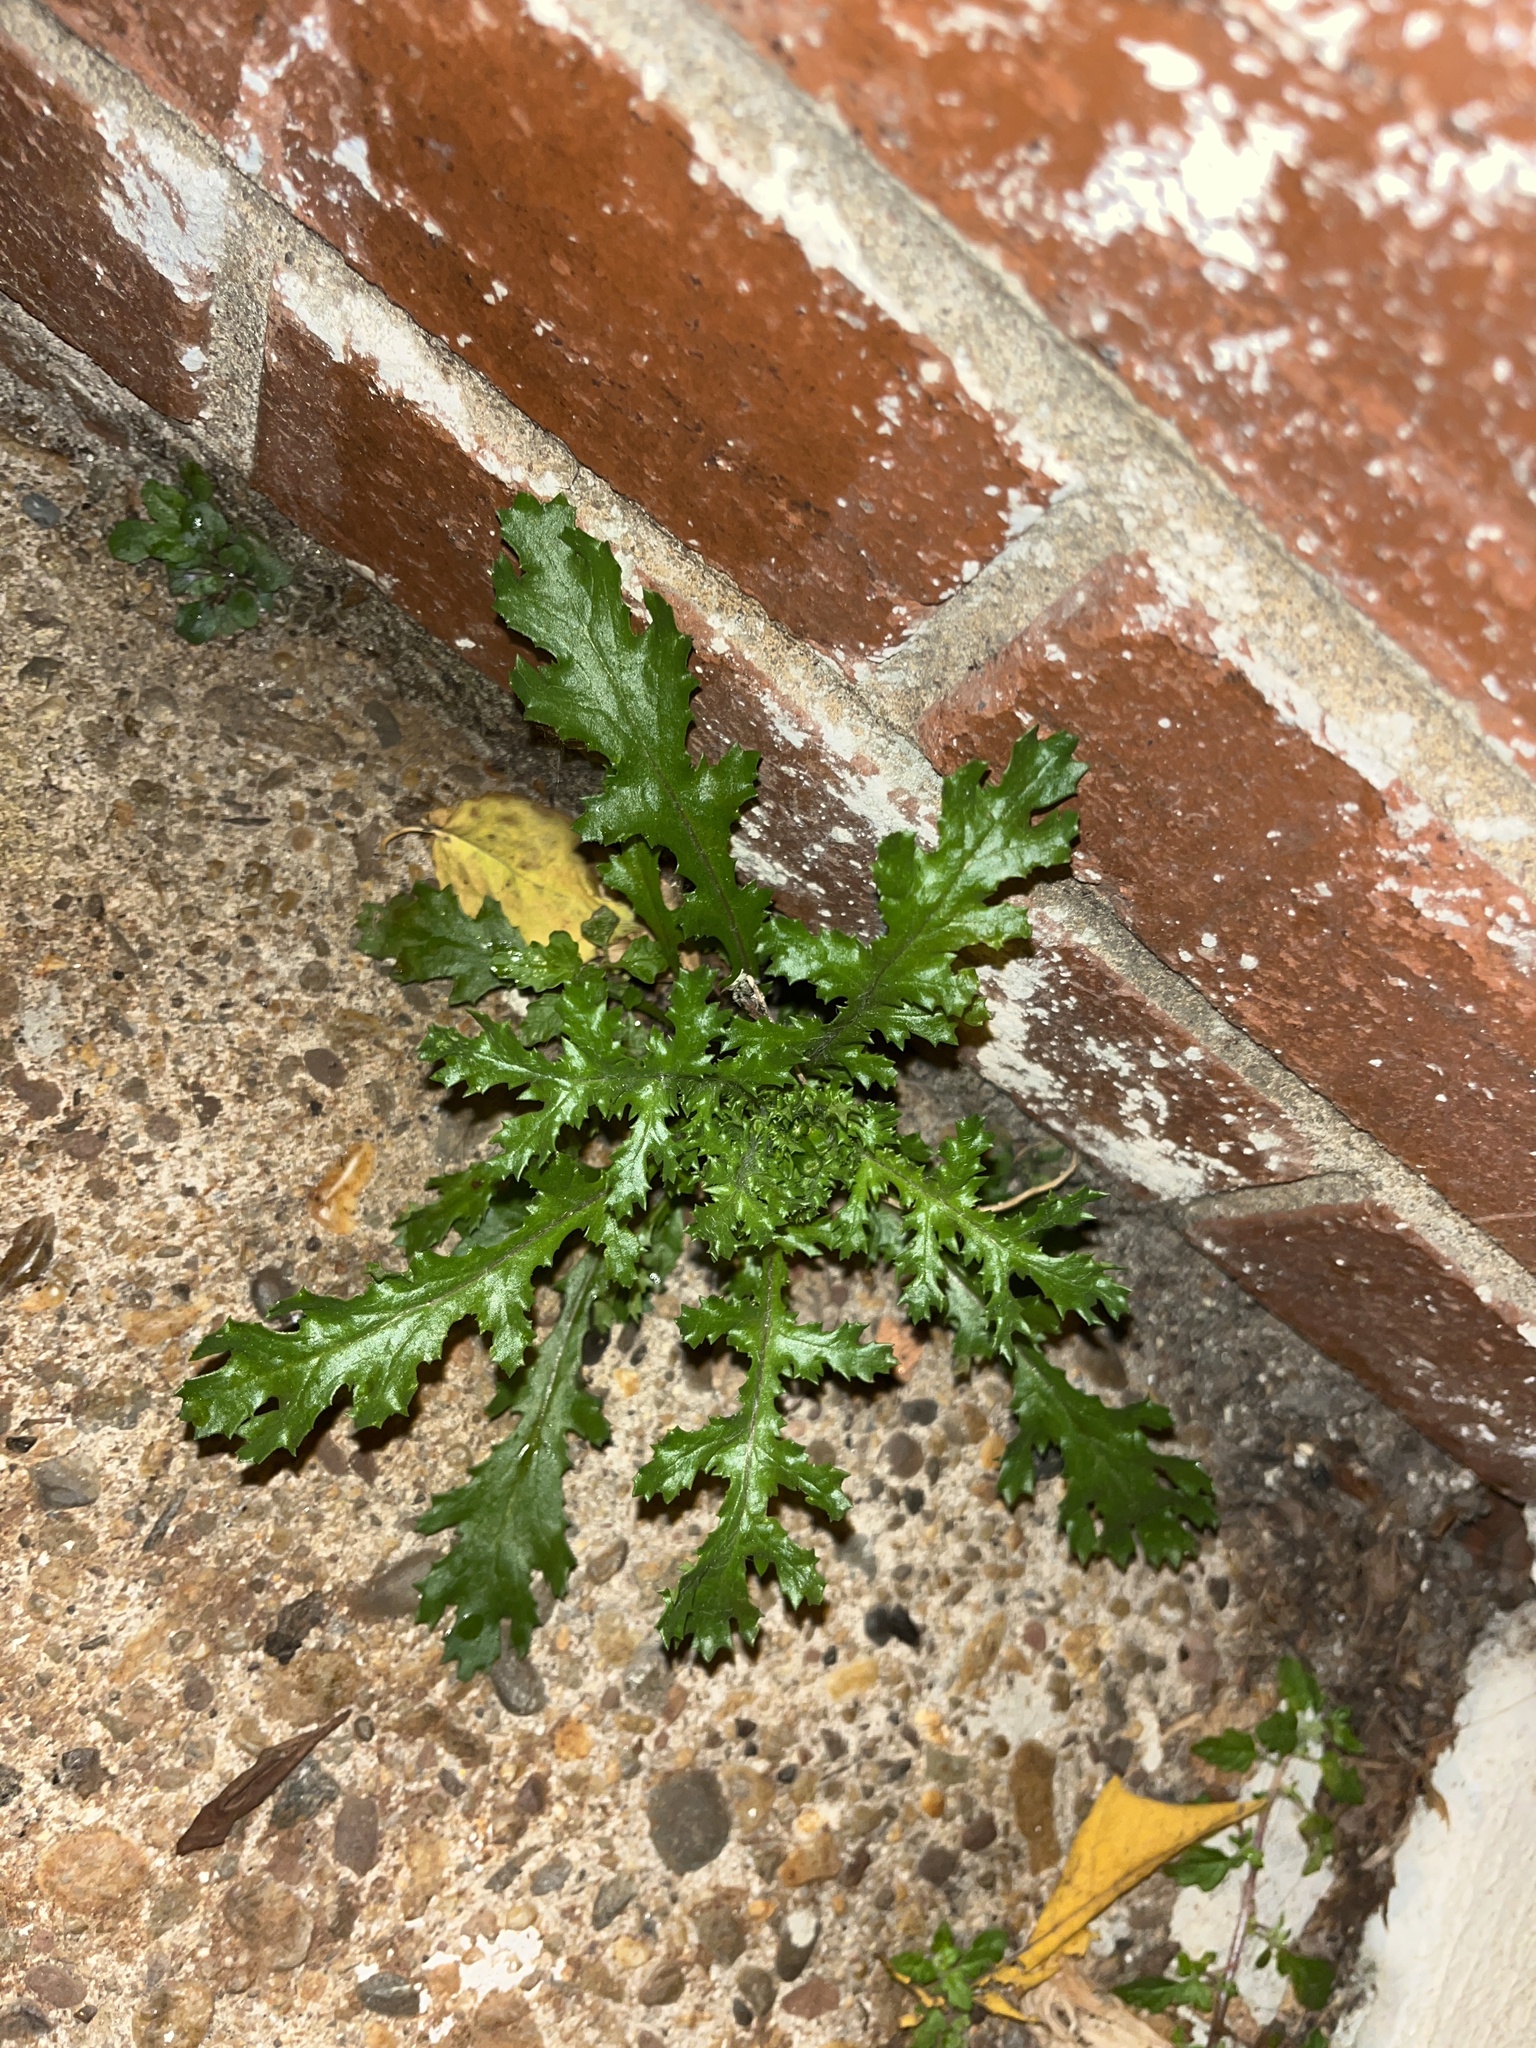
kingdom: Plantae
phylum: Tracheophyta
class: Magnoliopsida
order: Asterales
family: Asteraceae
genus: Senecio
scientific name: Senecio vulgaris
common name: Old-man-in-the-spring
